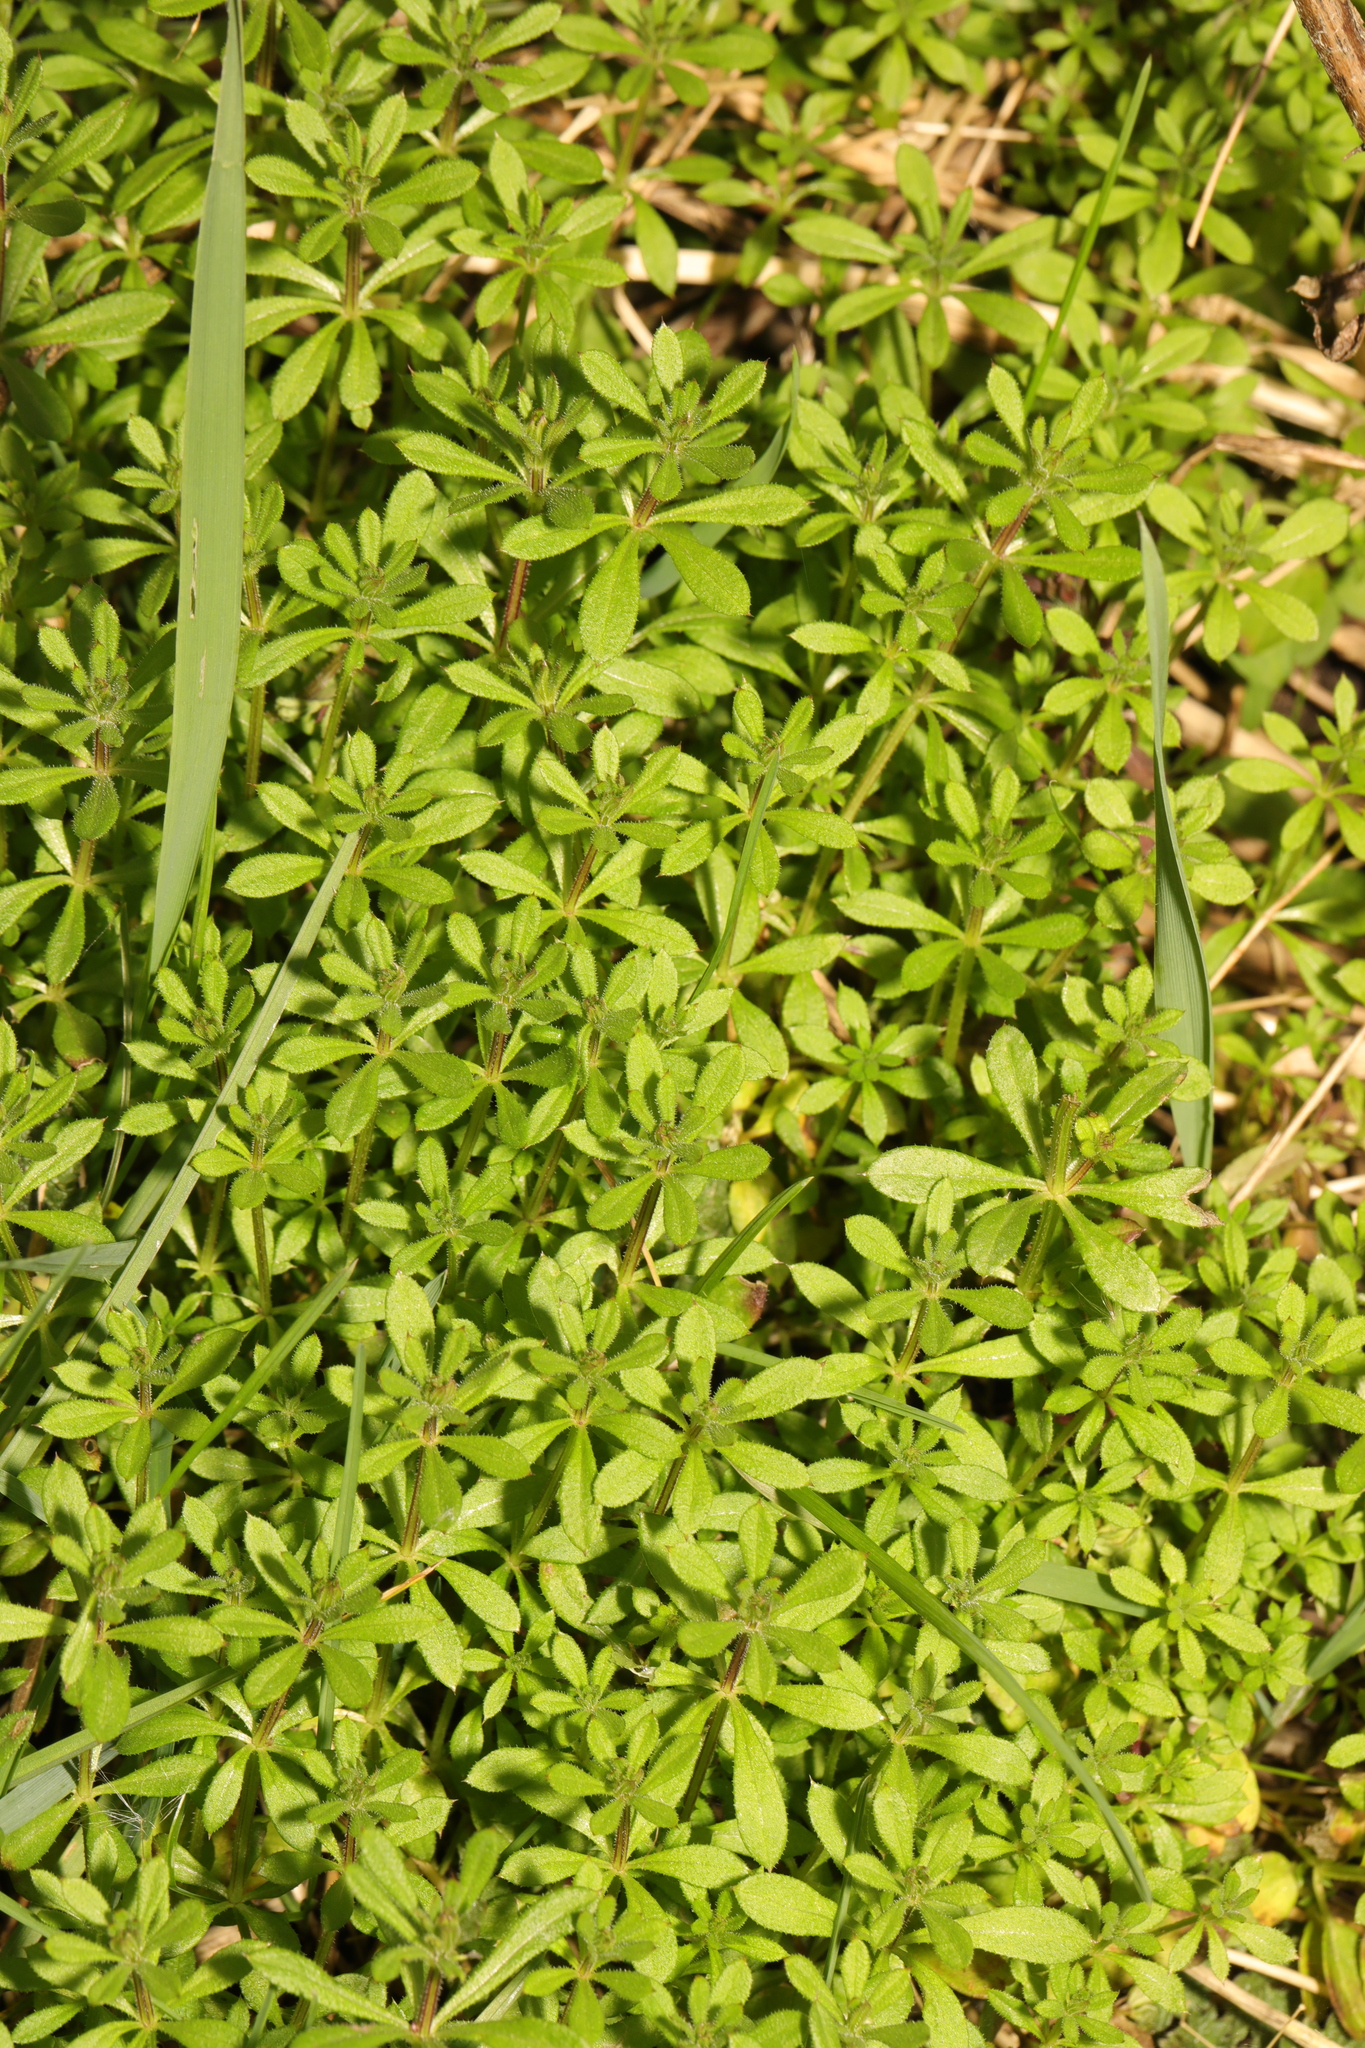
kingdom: Plantae
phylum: Tracheophyta
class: Magnoliopsida
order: Gentianales
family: Rubiaceae
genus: Galium
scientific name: Galium aparine
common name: Cleavers
